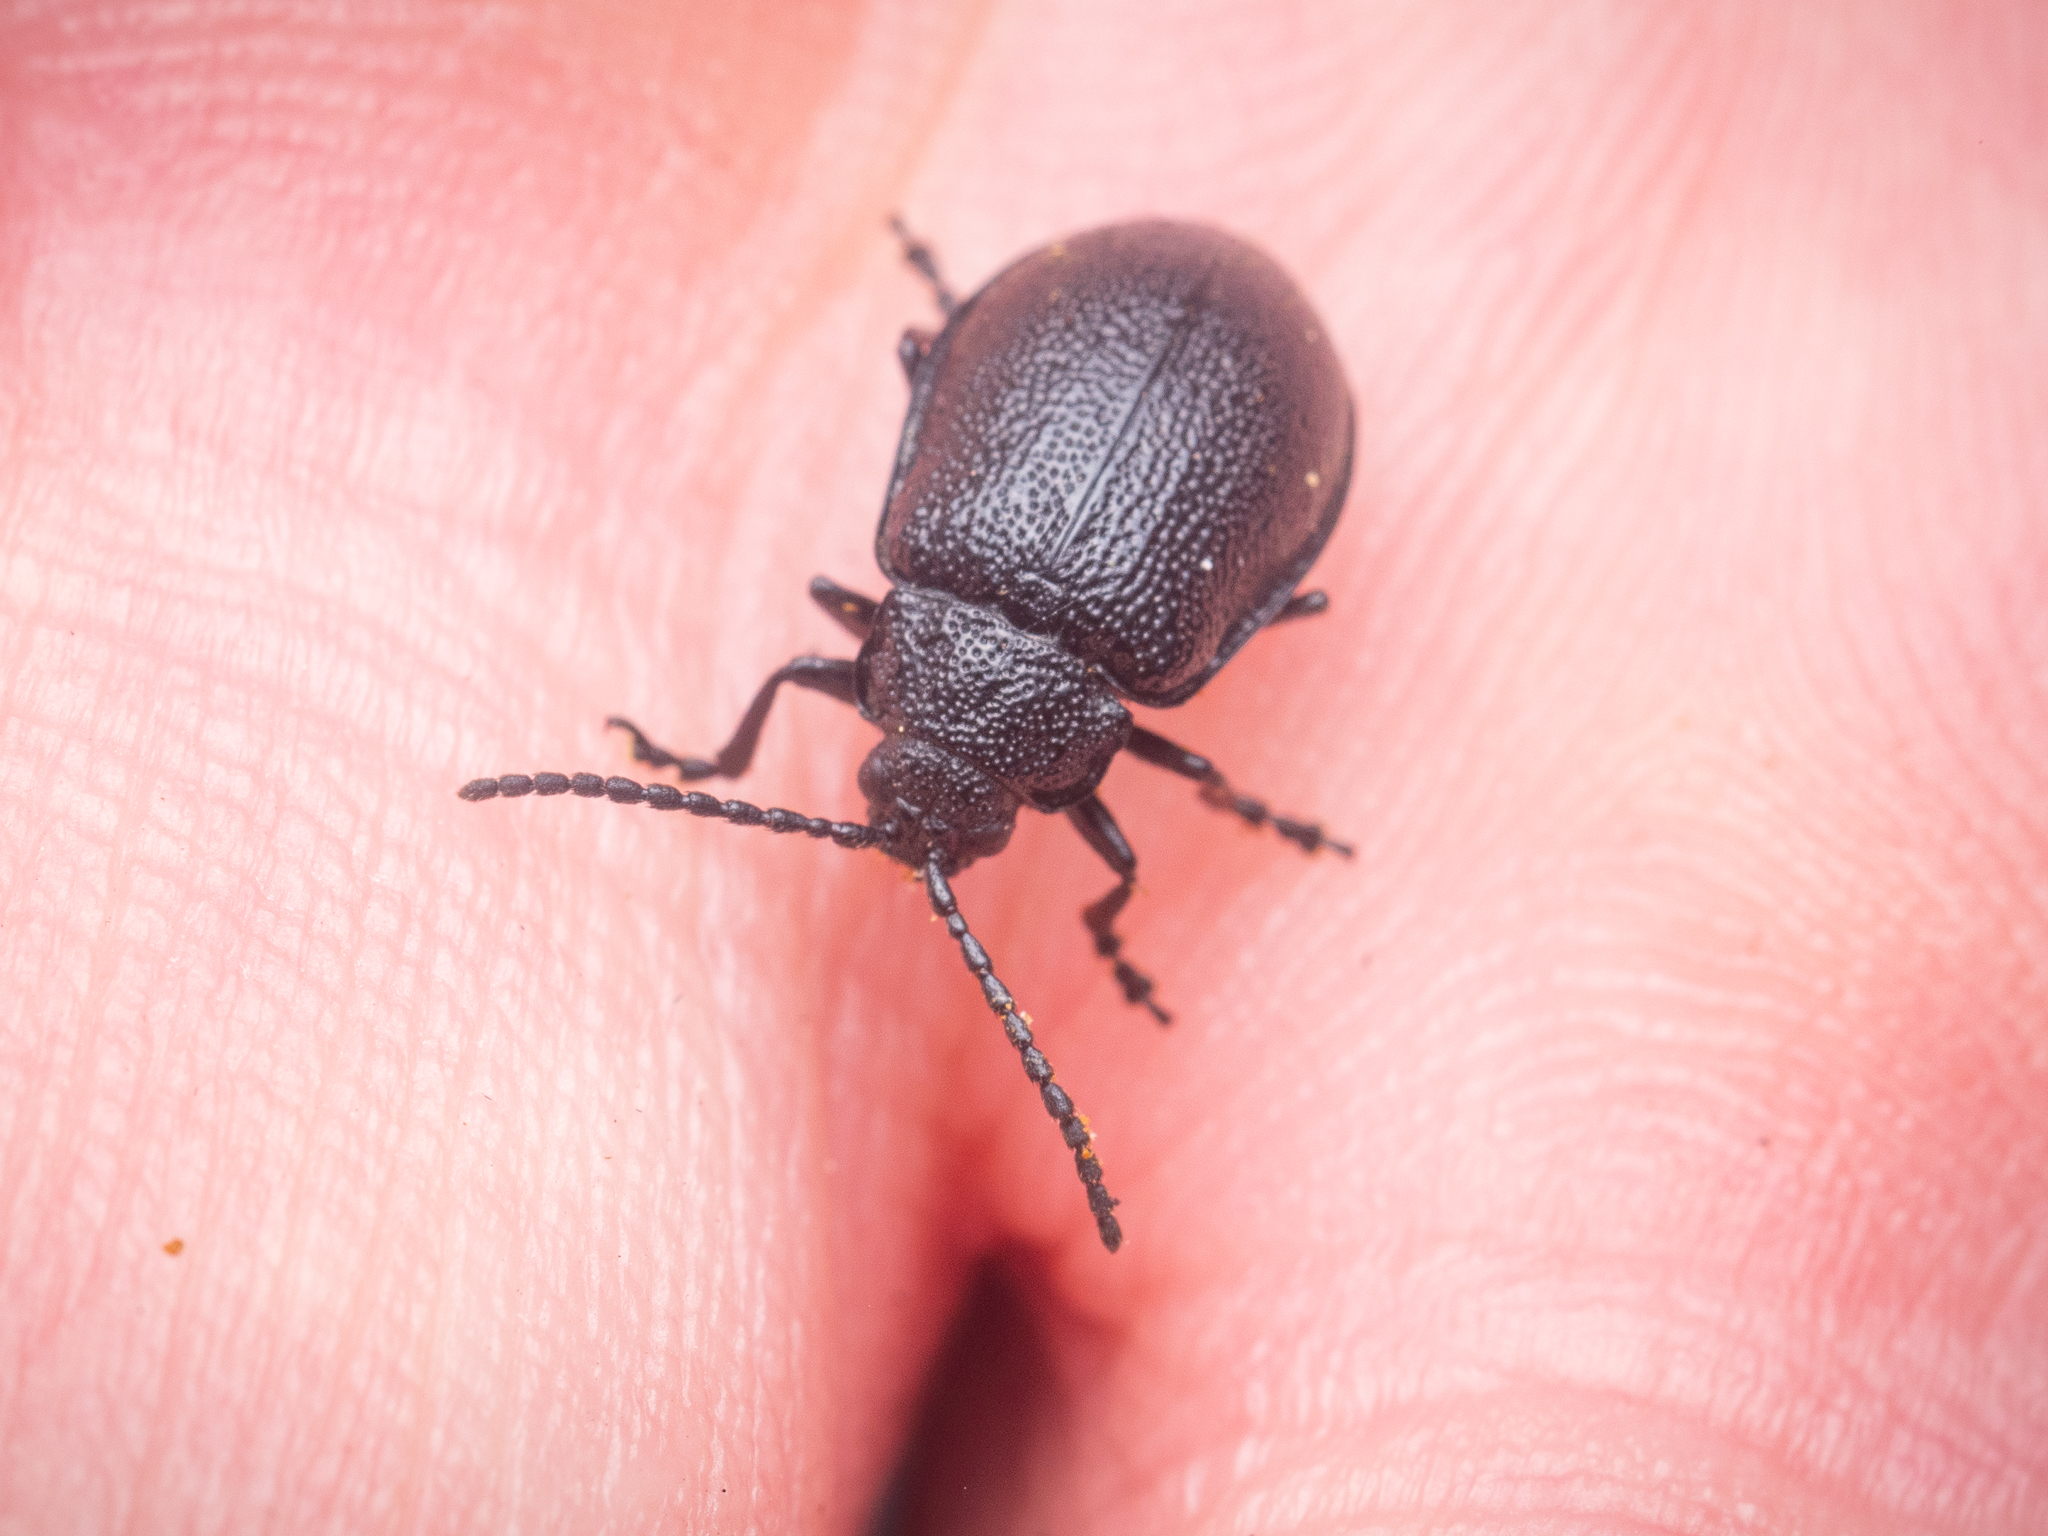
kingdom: Animalia
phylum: Arthropoda
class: Insecta
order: Coleoptera
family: Chrysomelidae
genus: Galeruca
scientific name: Galeruca tanaceti
